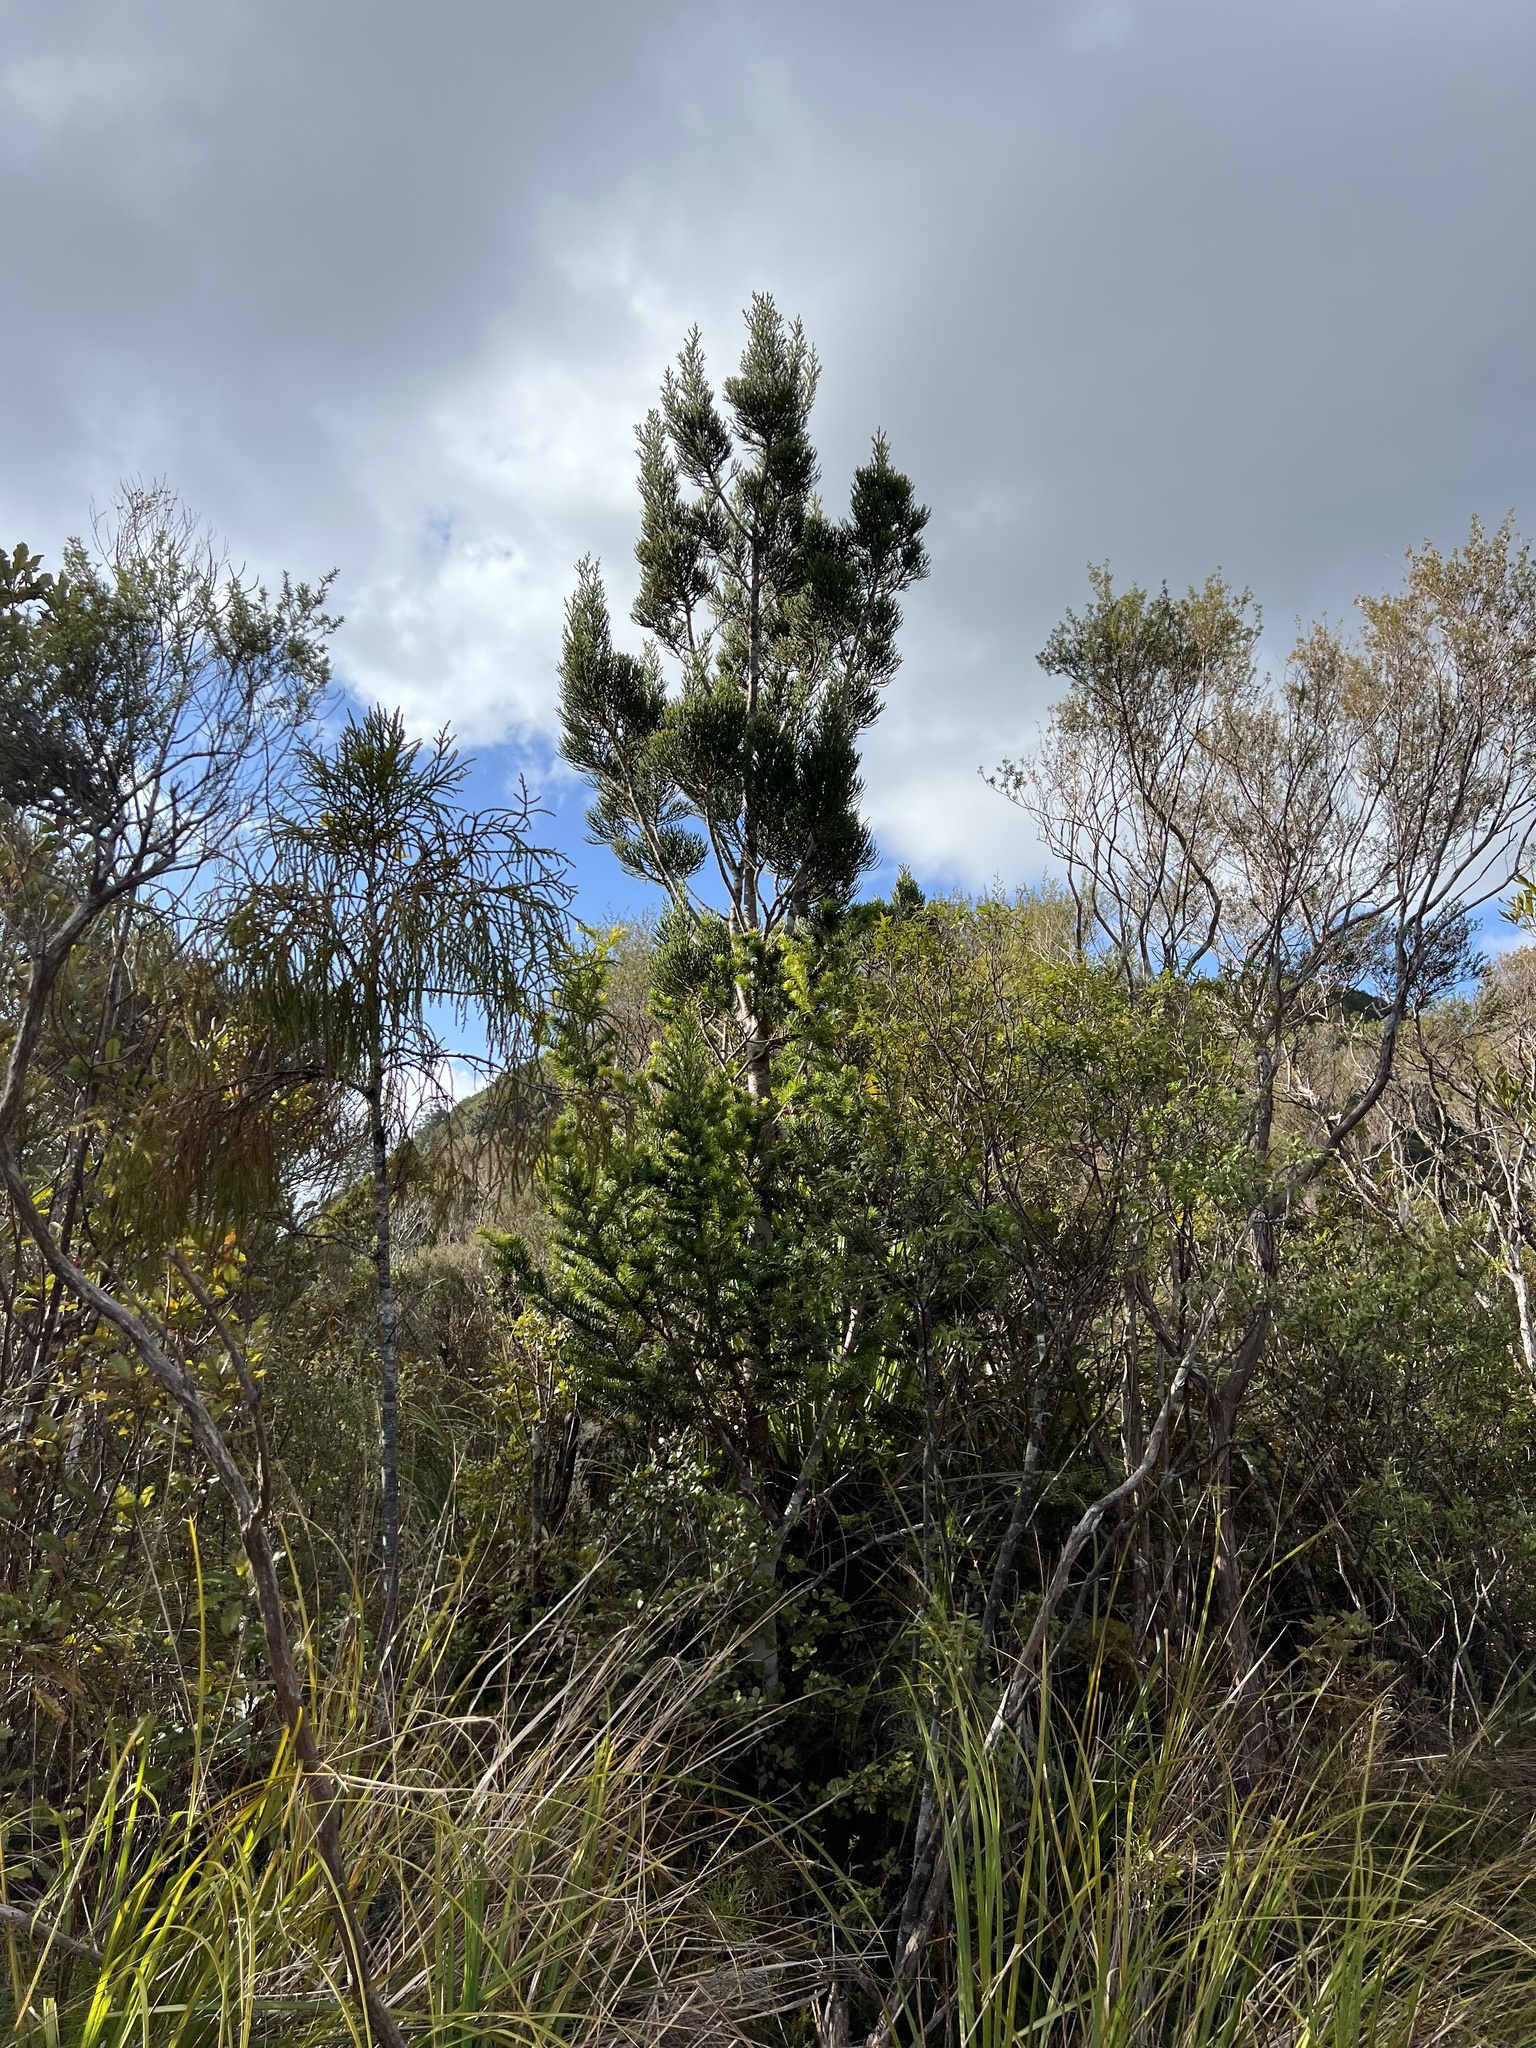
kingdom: Plantae
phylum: Tracheophyta
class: Pinopsida
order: Pinales
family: Podocarpaceae
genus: Halocarpus
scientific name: Halocarpus kirkii
